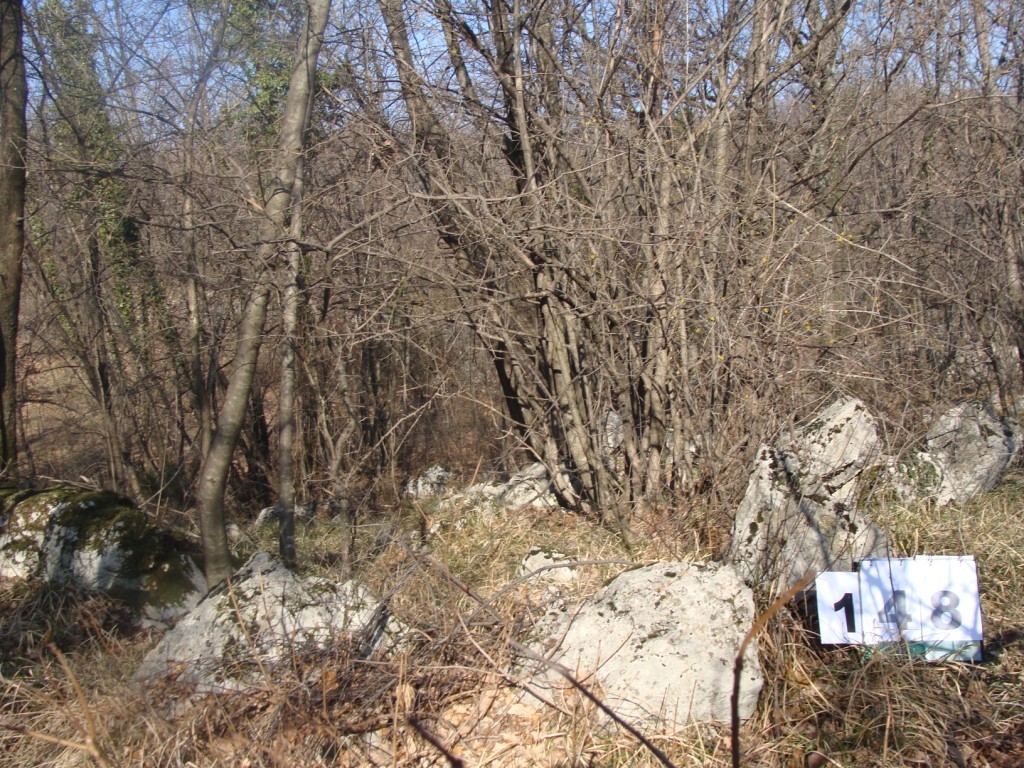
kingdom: Plantae
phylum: Tracheophyta
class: Magnoliopsida
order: Cornales
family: Cornaceae
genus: Cornus
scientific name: Cornus mas
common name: Cornelian-cherry
